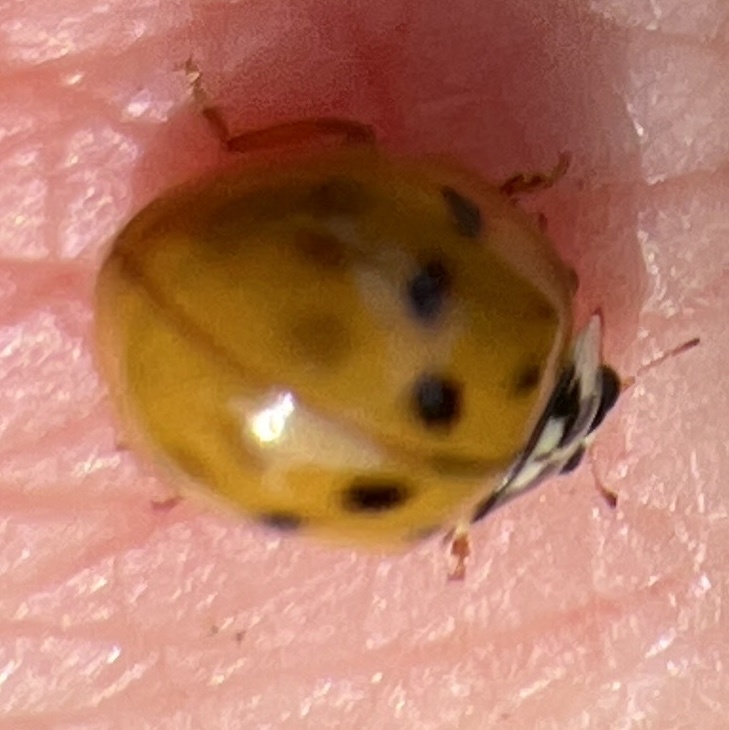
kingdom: Animalia
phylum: Arthropoda
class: Insecta
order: Coleoptera
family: Coccinellidae
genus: Harmonia
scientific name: Harmonia axyridis
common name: Harlequin ladybird
